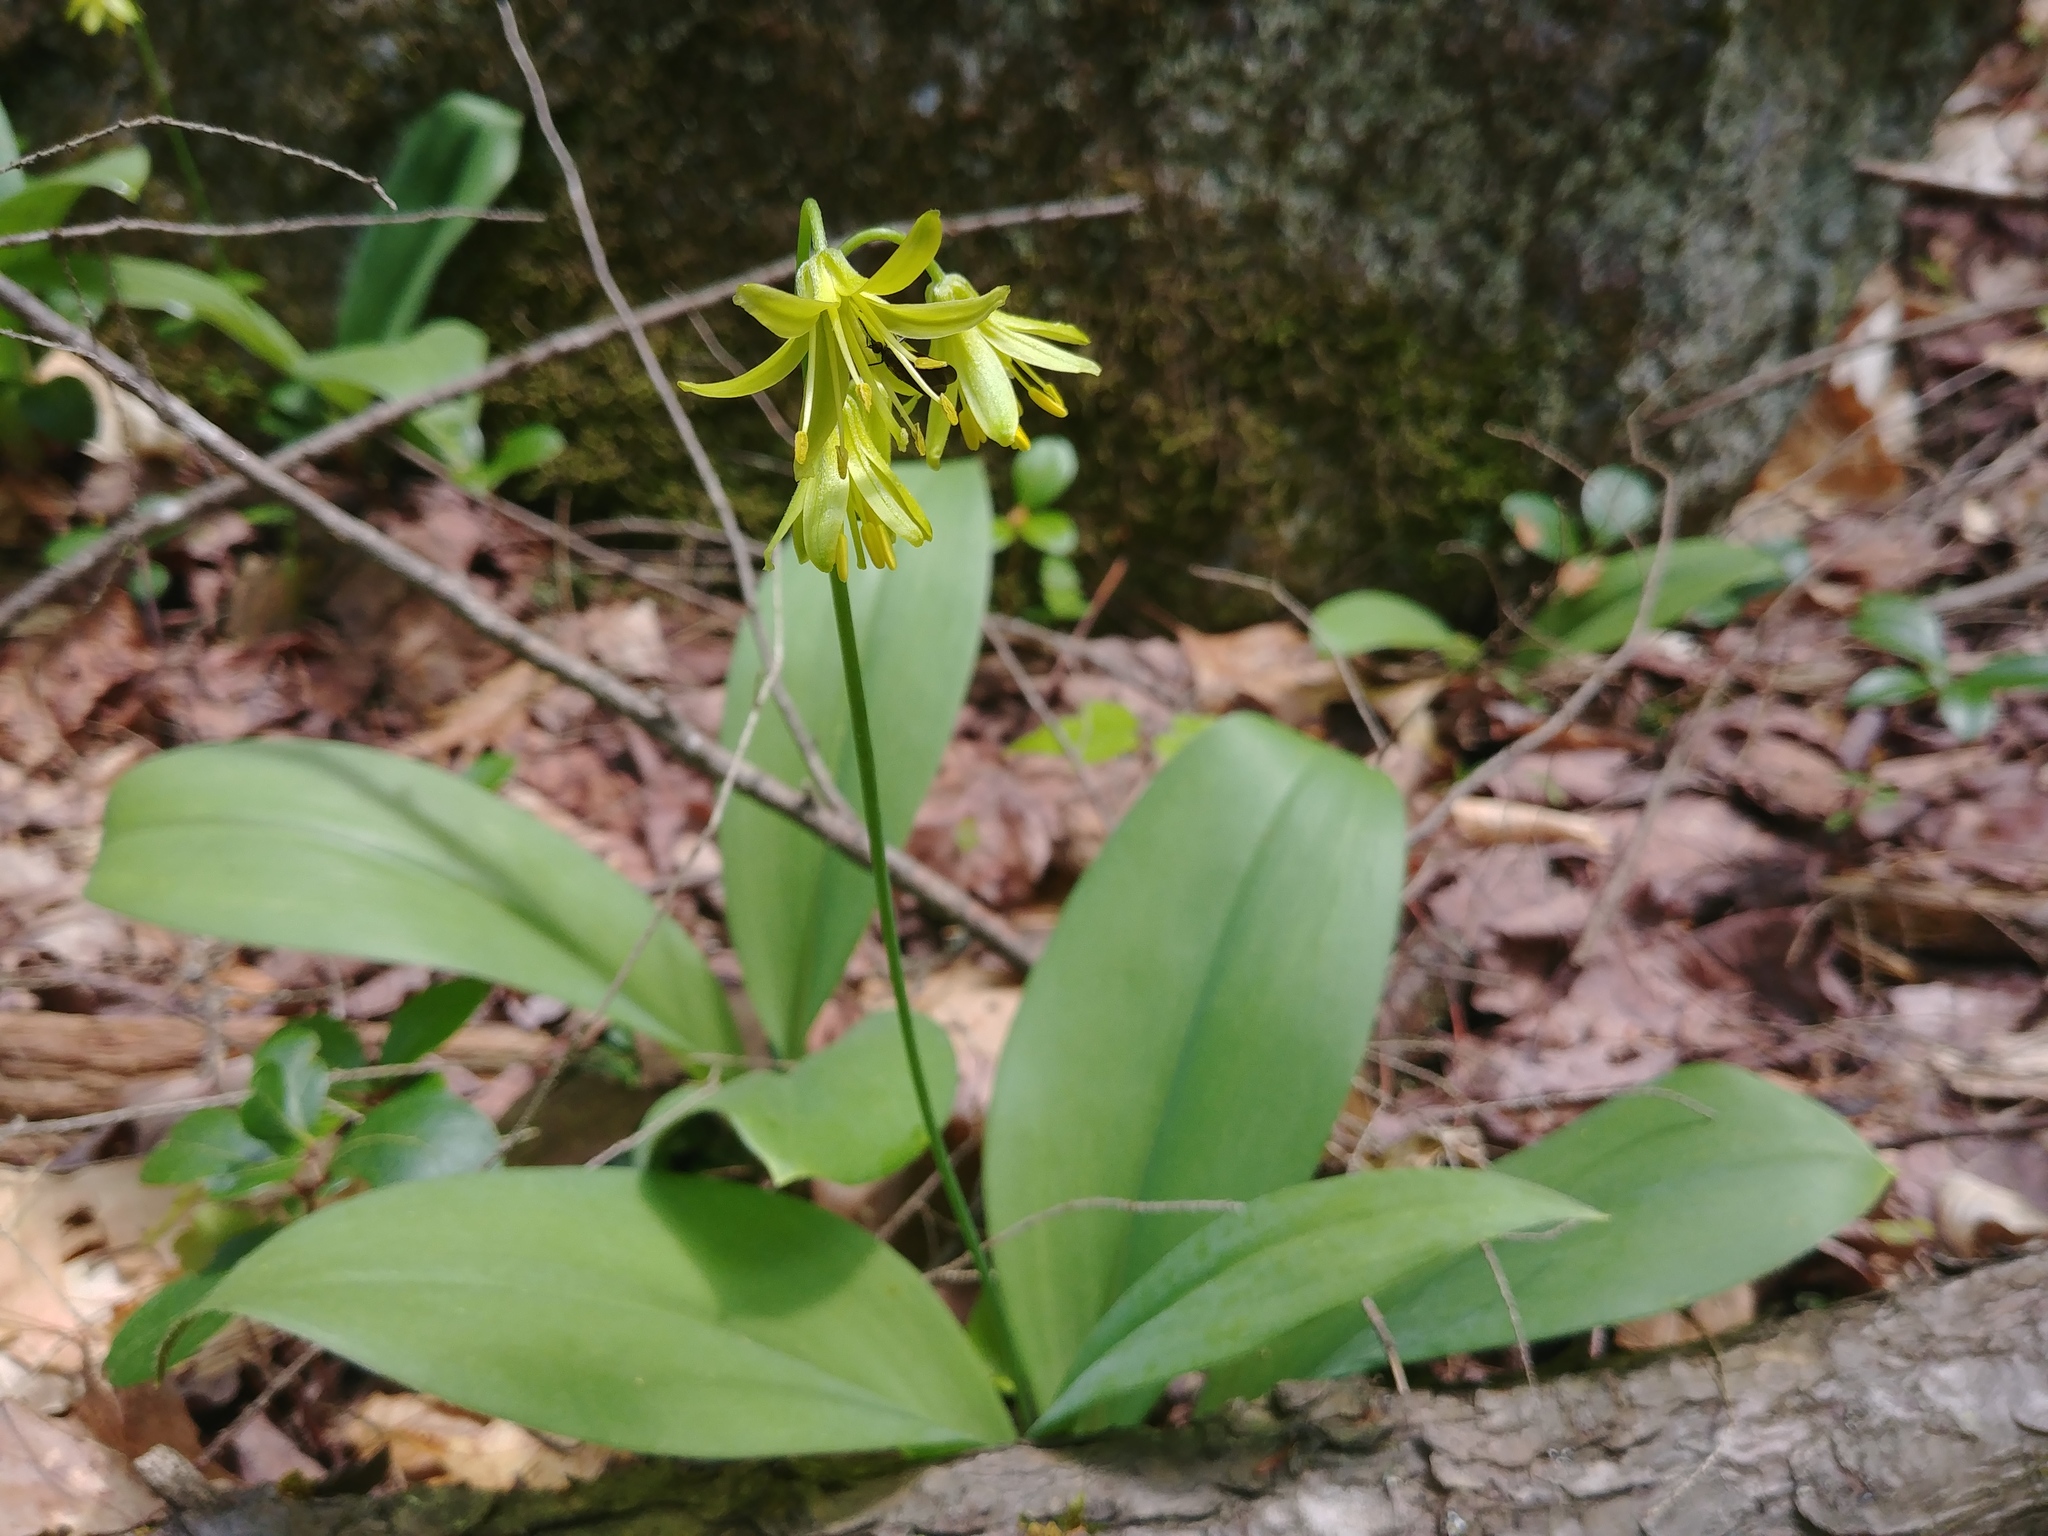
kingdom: Plantae
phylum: Tracheophyta
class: Liliopsida
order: Liliales
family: Liliaceae
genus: Clintonia
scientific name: Clintonia borealis
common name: Yellow clintonia
